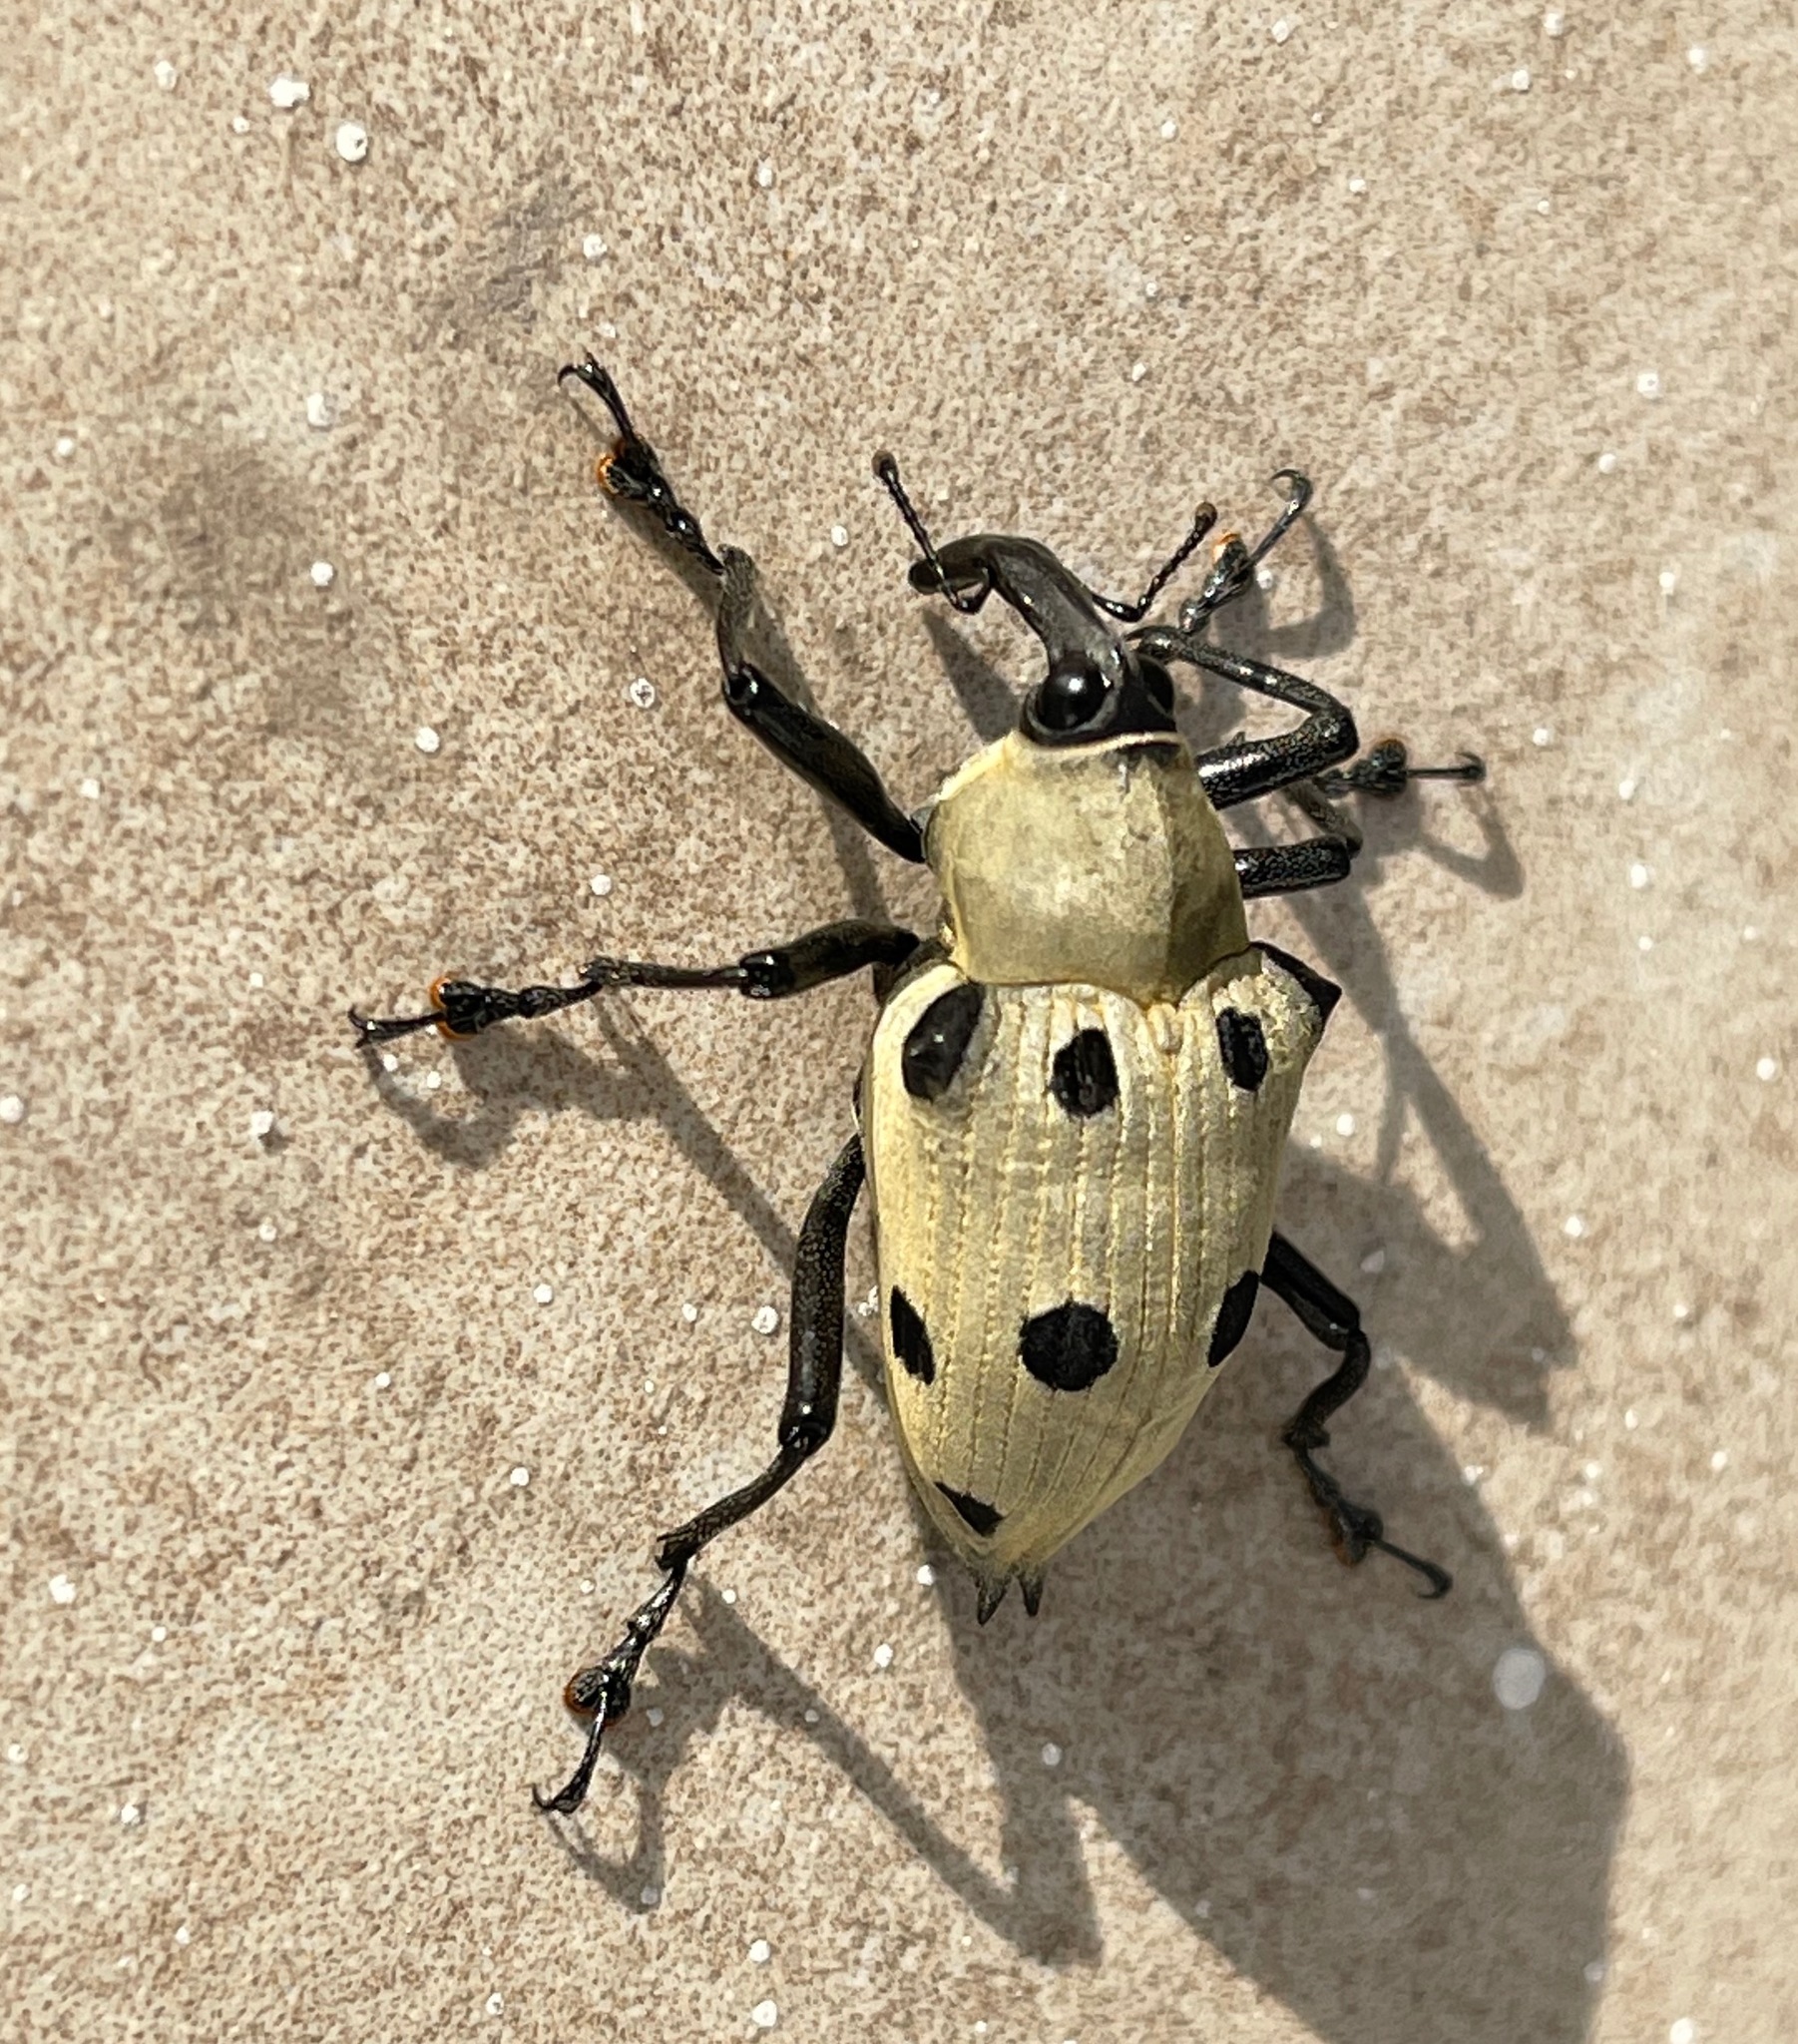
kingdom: Animalia
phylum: Arthropoda
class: Insecta
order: Coleoptera
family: Curculionidae
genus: Cratosomus
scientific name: Cratosomus consularis
